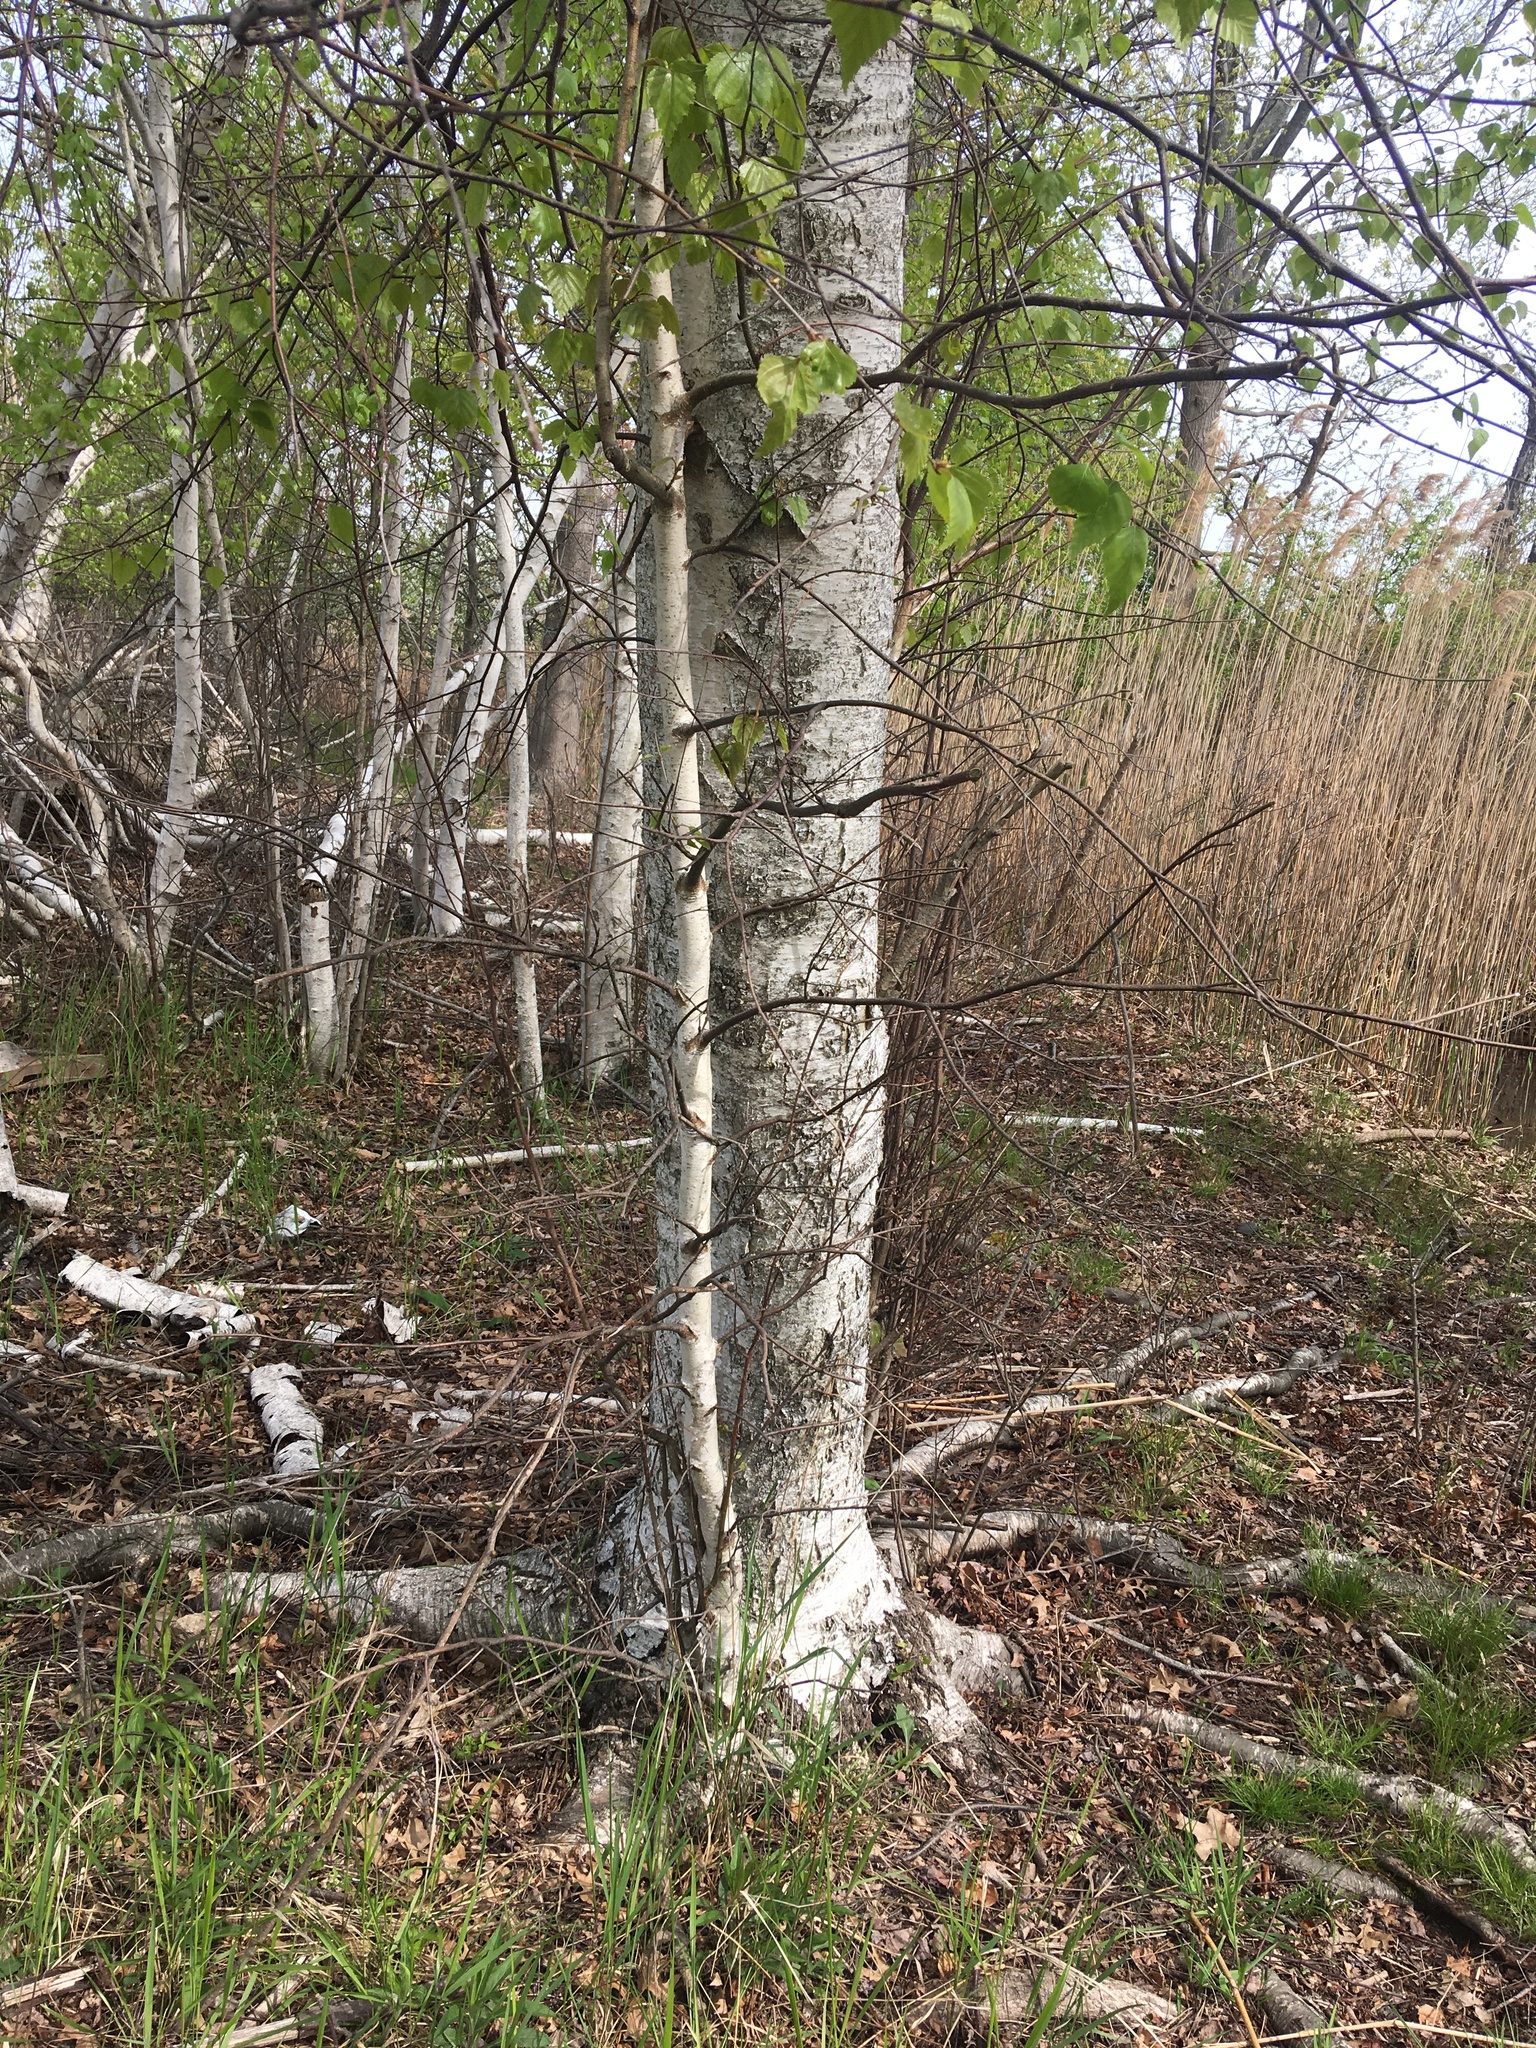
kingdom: Plantae
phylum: Tracheophyta
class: Magnoliopsida
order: Fagales
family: Betulaceae
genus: Betula
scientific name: Betula populifolia
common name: Fire birch
